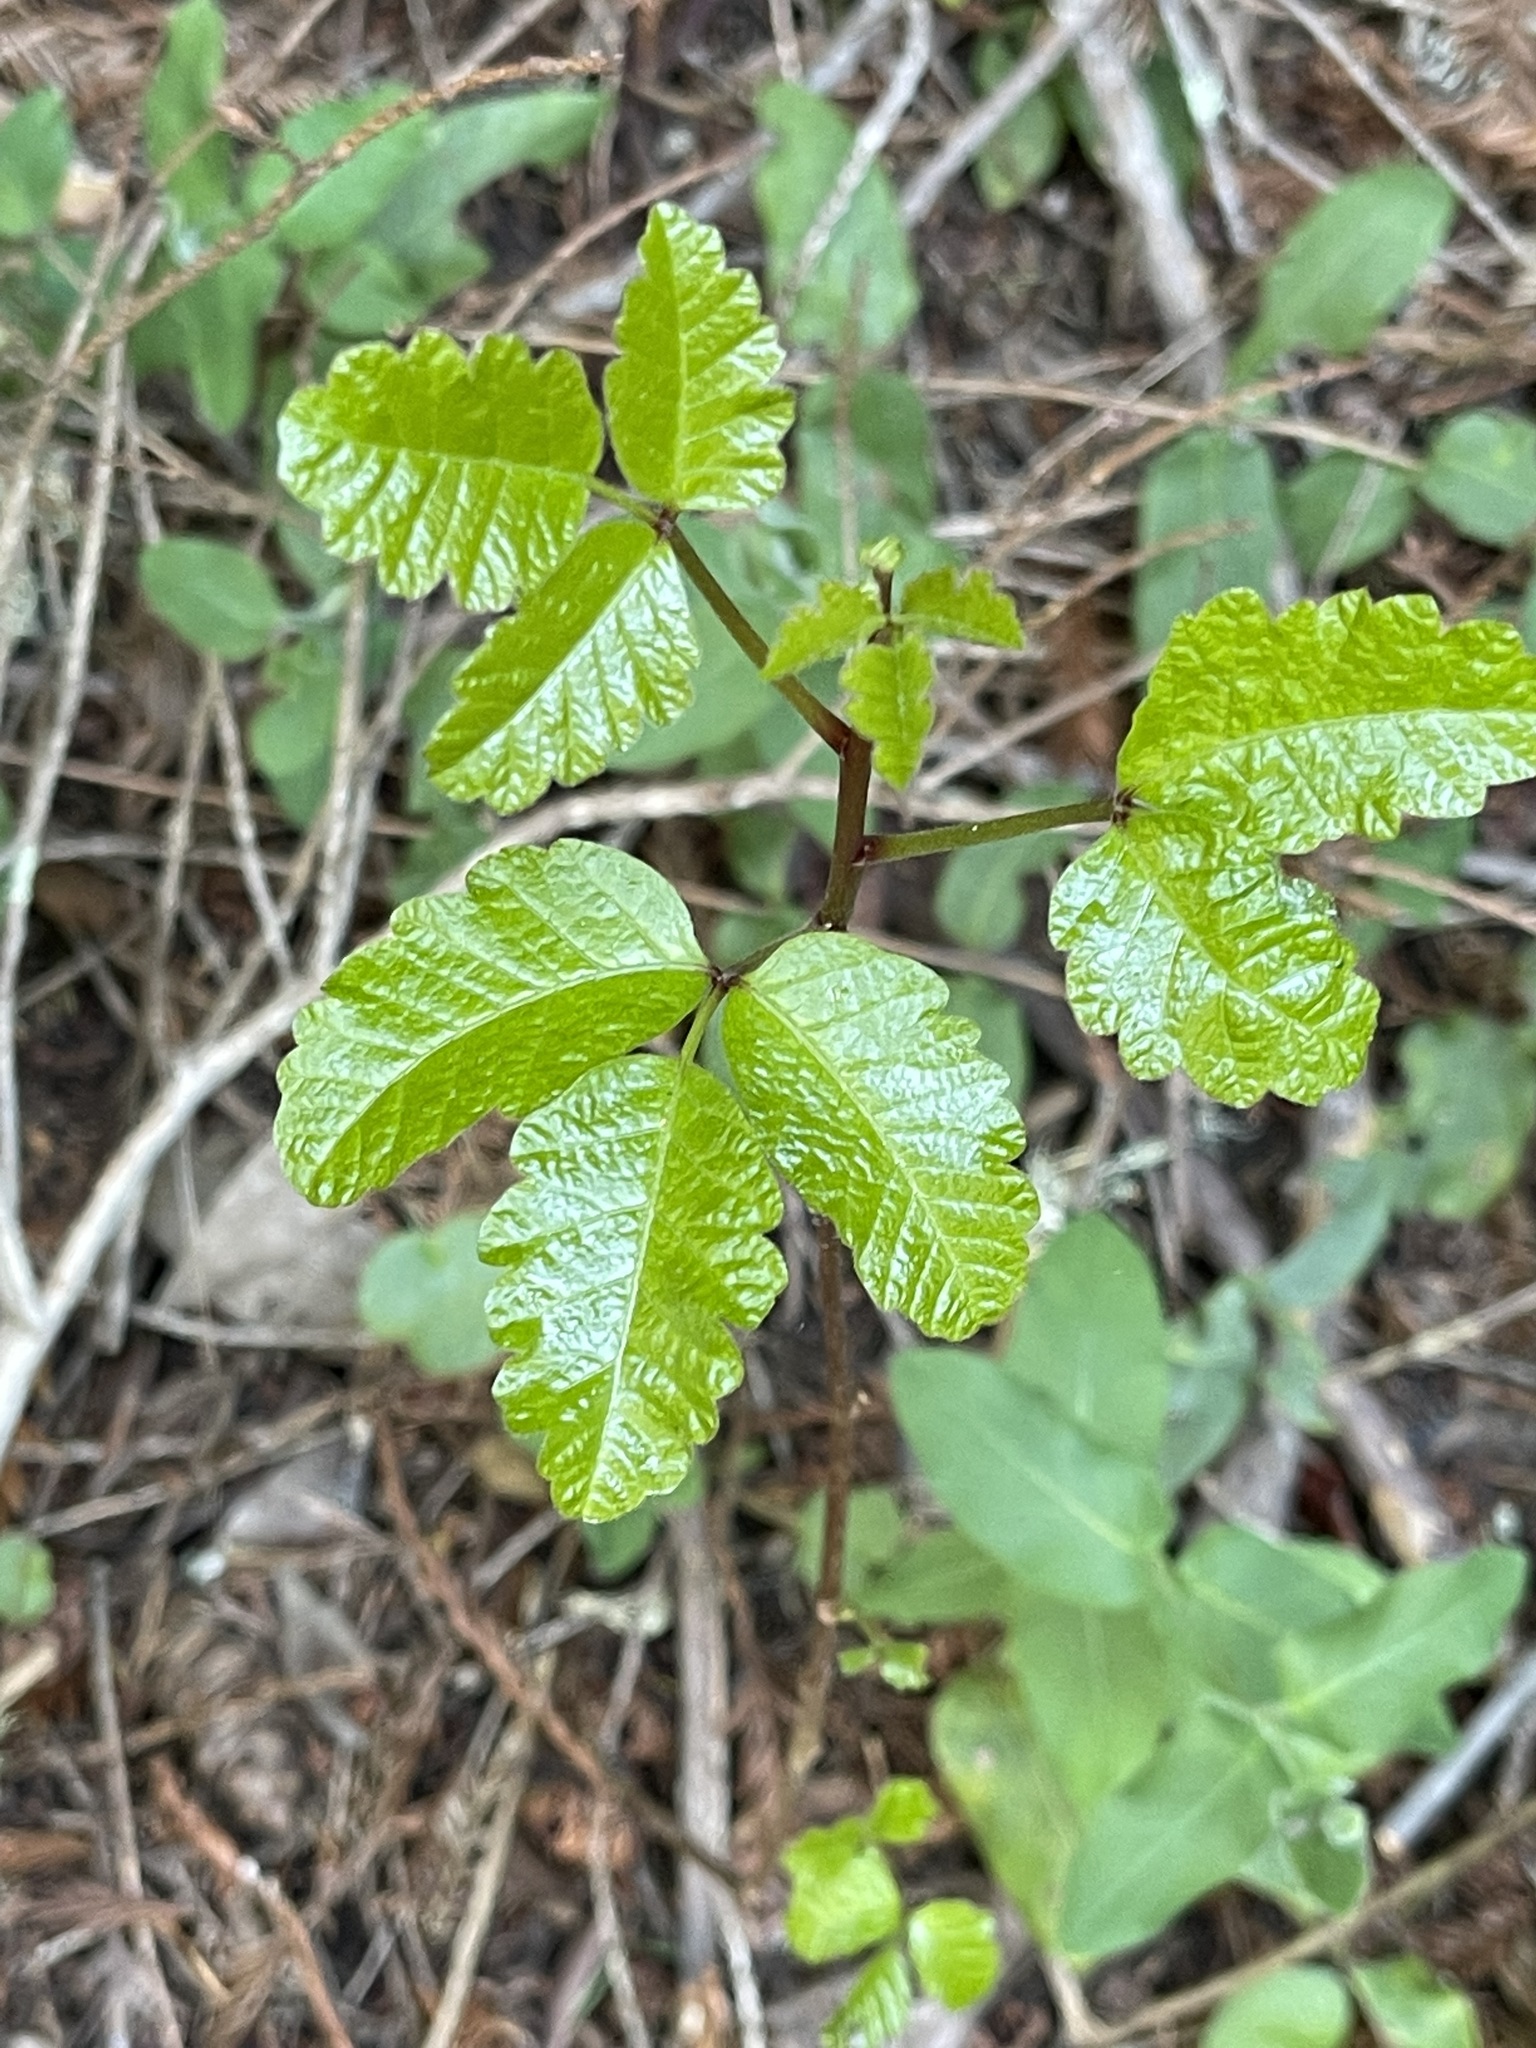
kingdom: Plantae
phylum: Tracheophyta
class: Magnoliopsida
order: Sapindales
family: Anacardiaceae
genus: Toxicodendron
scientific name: Toxicodendron diversilobum
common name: Pacific poison-oak
